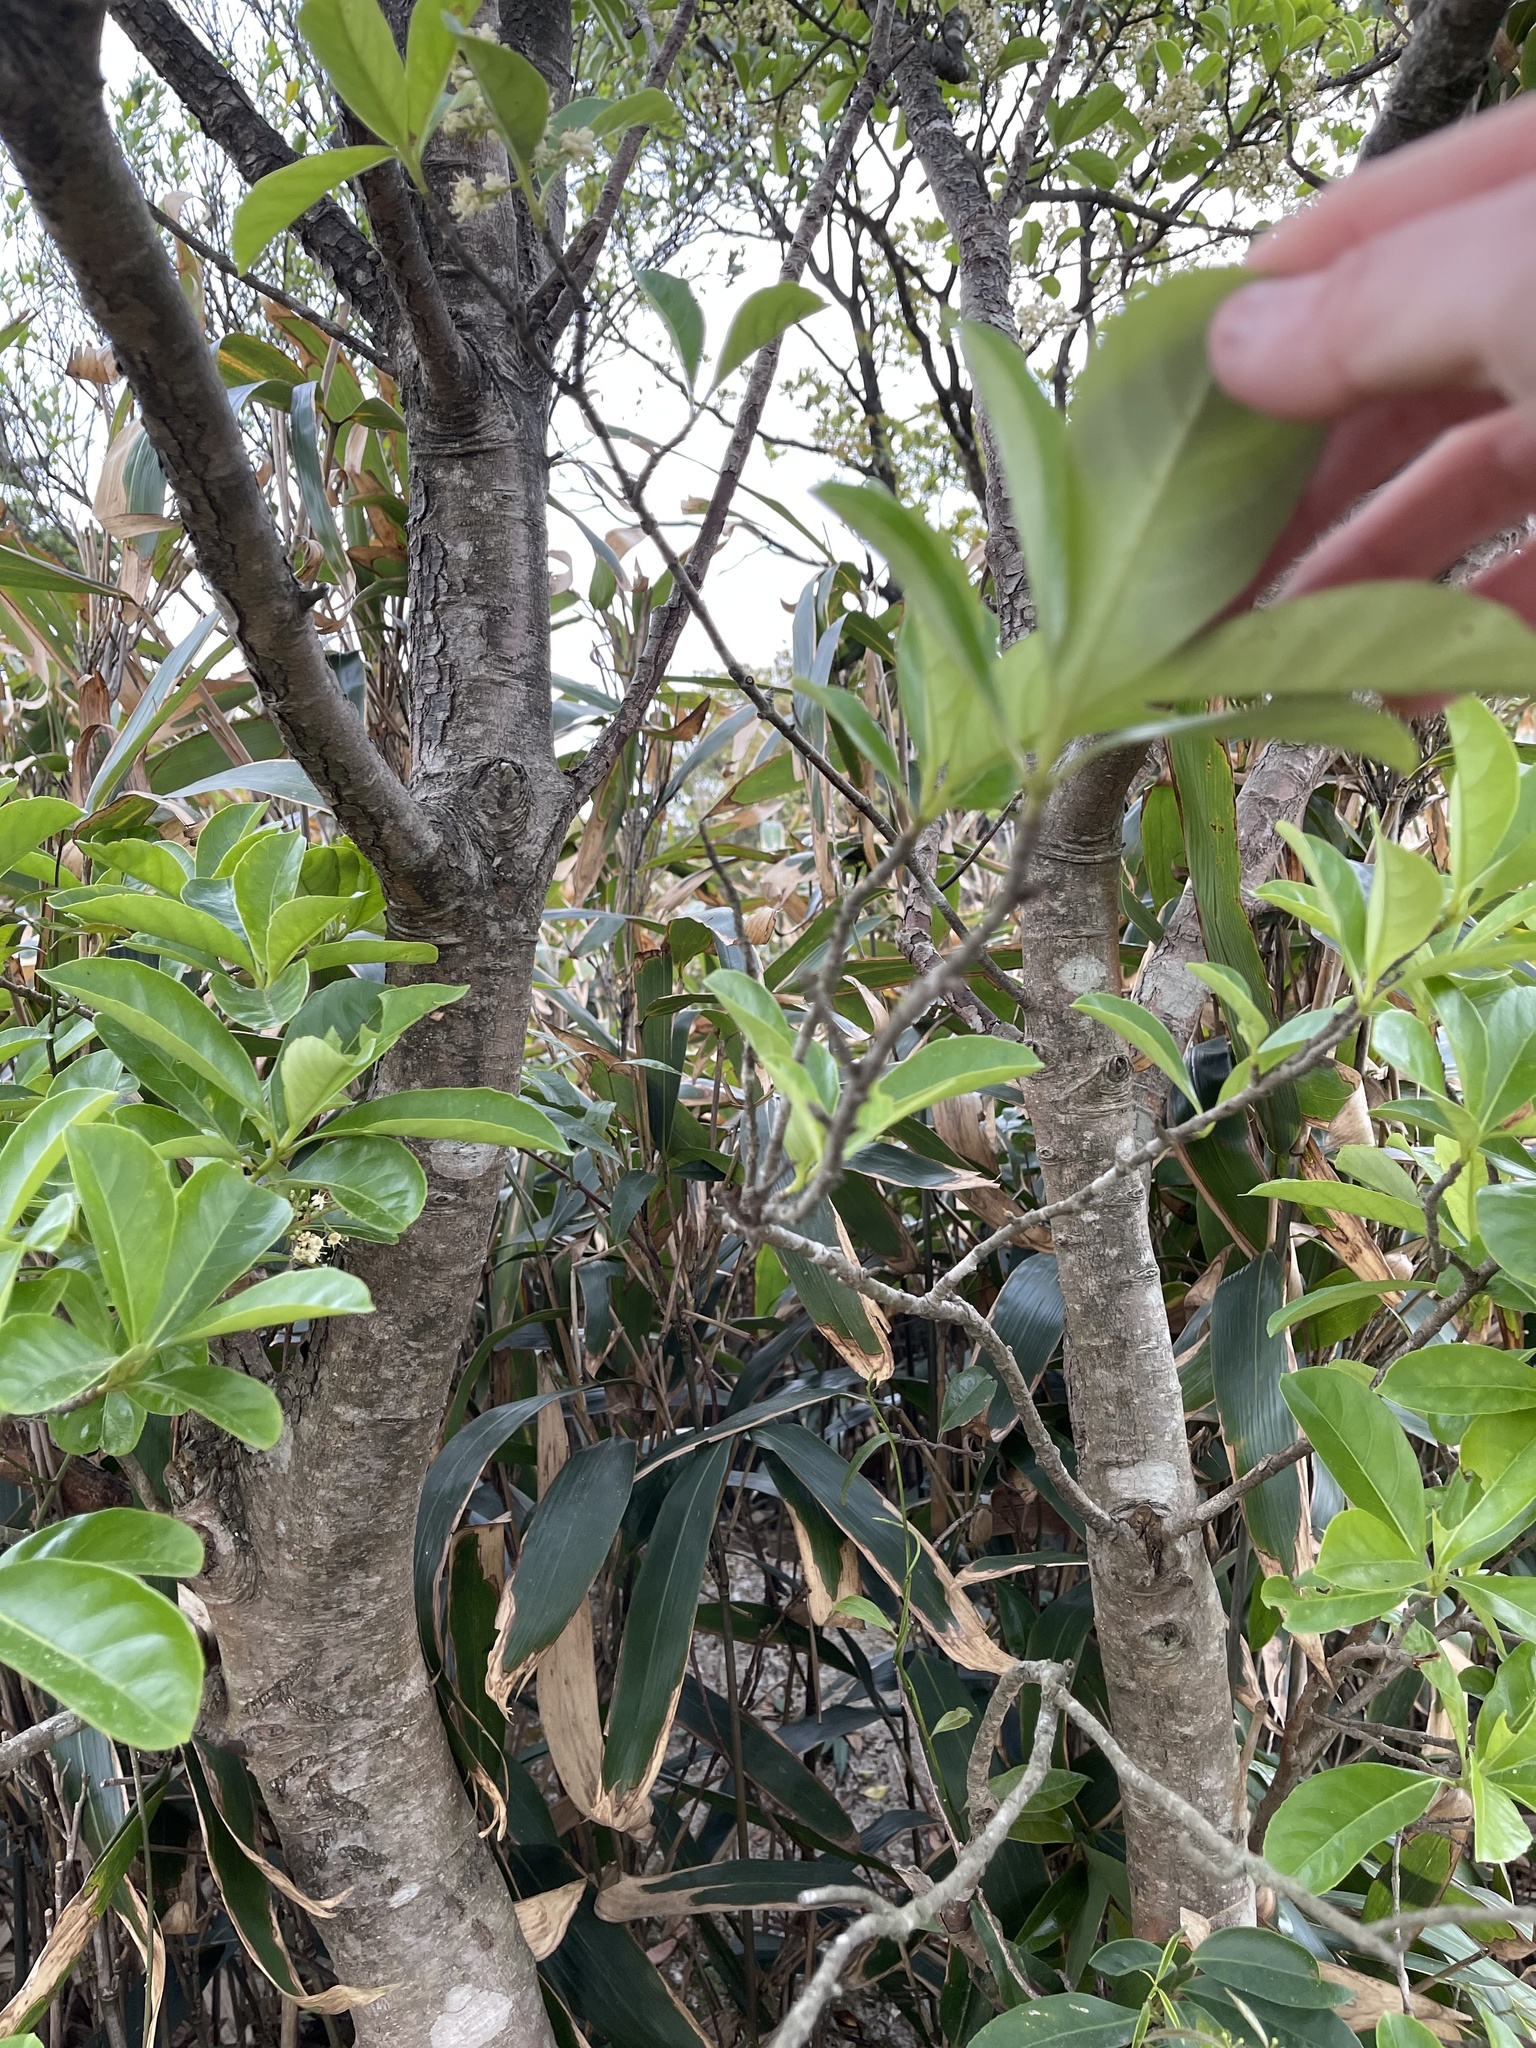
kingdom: Plantae
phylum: Tracheophyta
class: Magnoliopsida
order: Dipsacales
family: Viburnaceae
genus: Viburnum
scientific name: Viburnum odoratissimum
